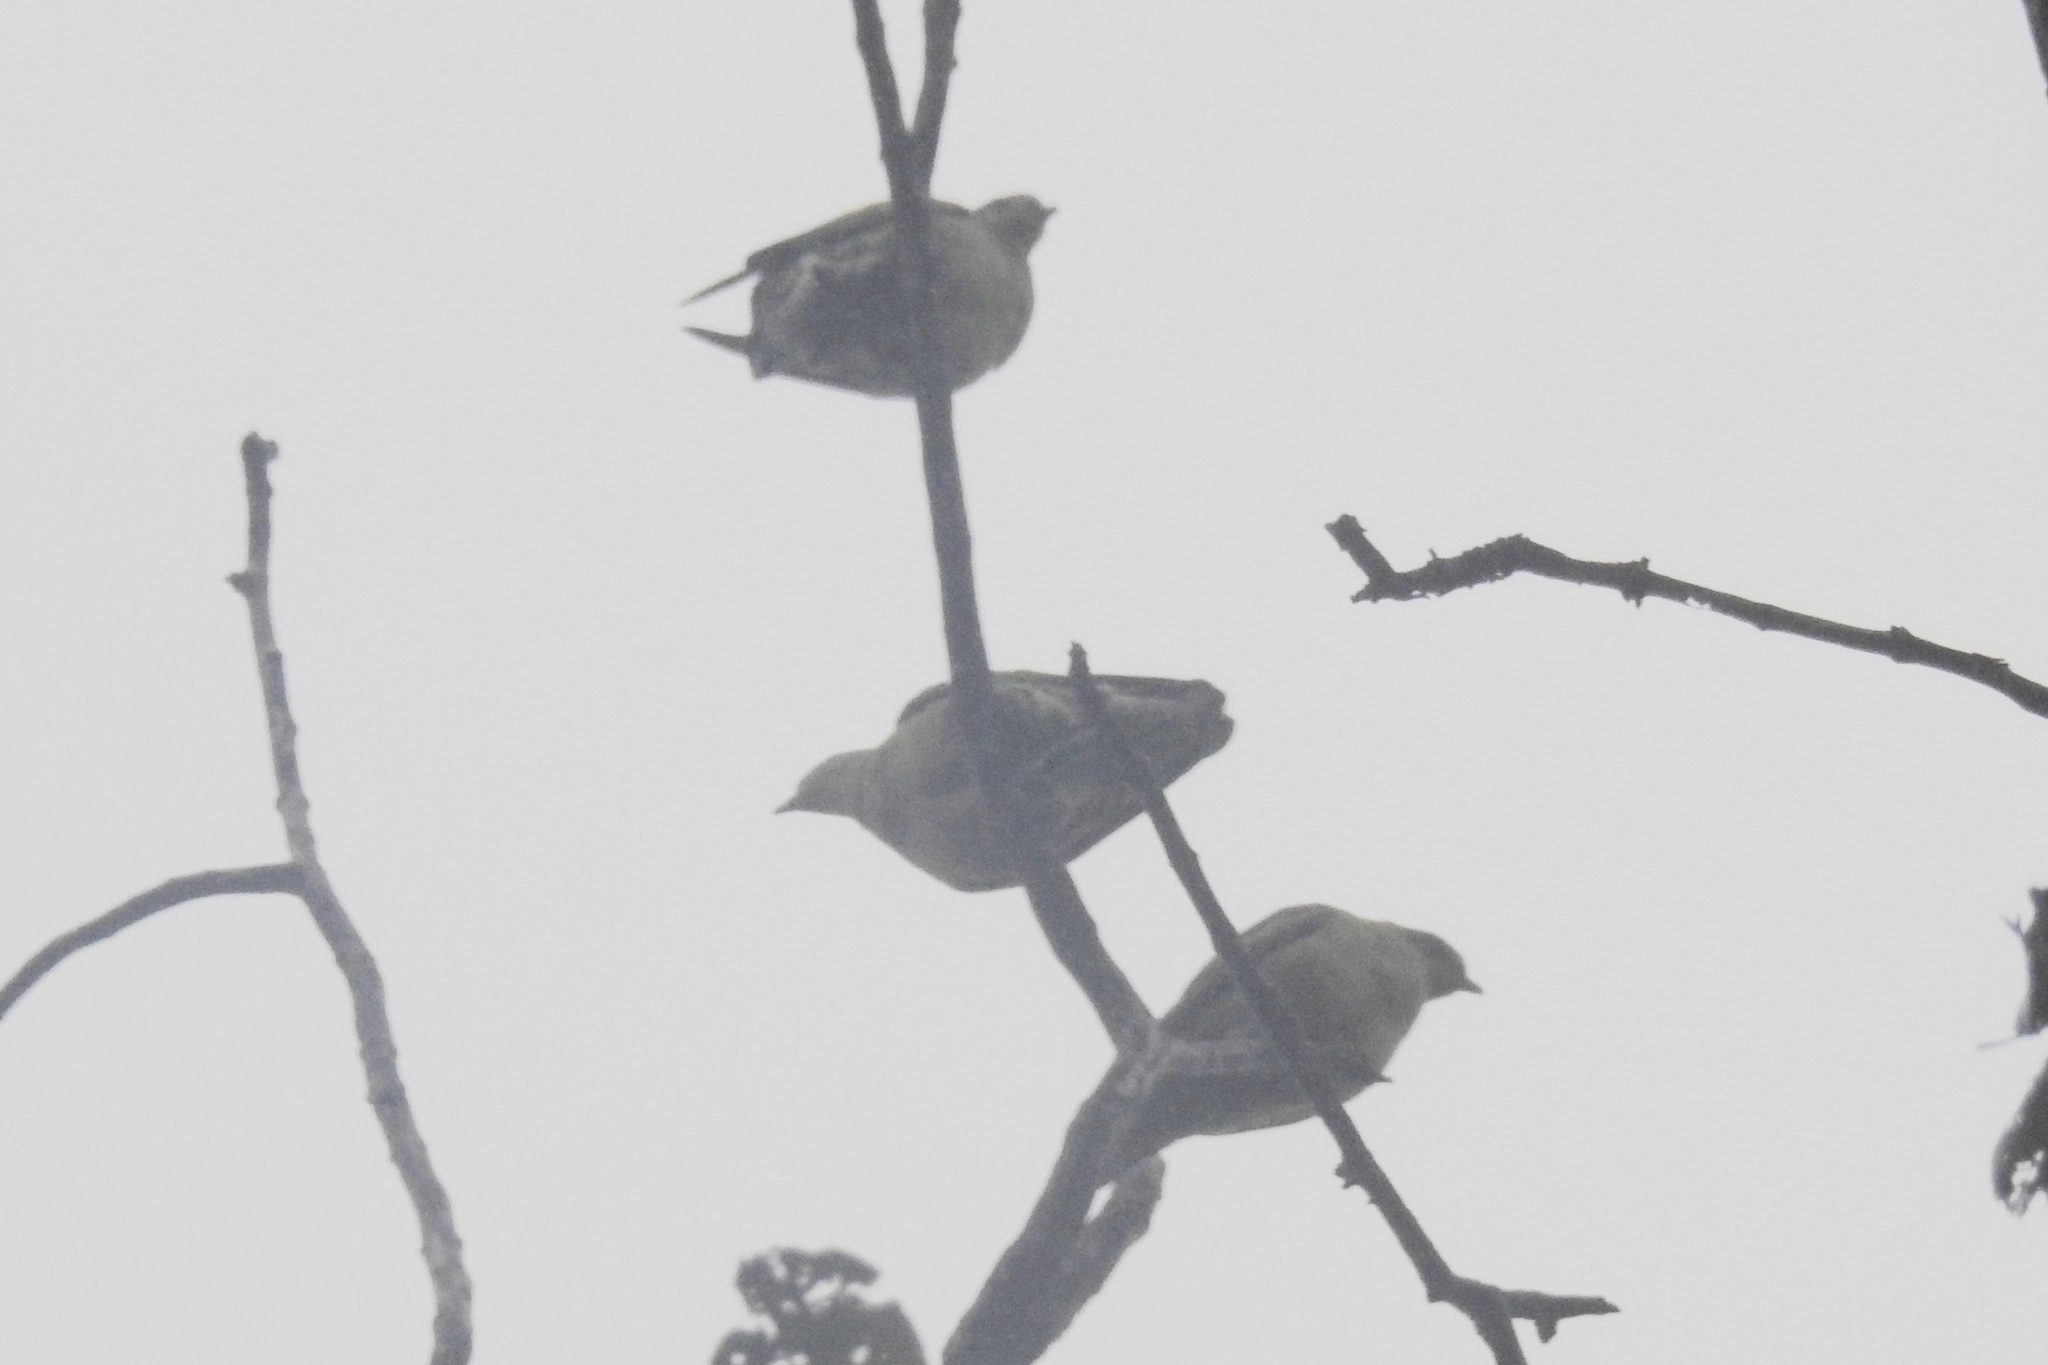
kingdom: Animalia
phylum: Chordata
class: Aves
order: Columbiformes
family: Columbidae
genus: Treron
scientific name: Treron affinis
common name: Grey-fronted green pigeon
